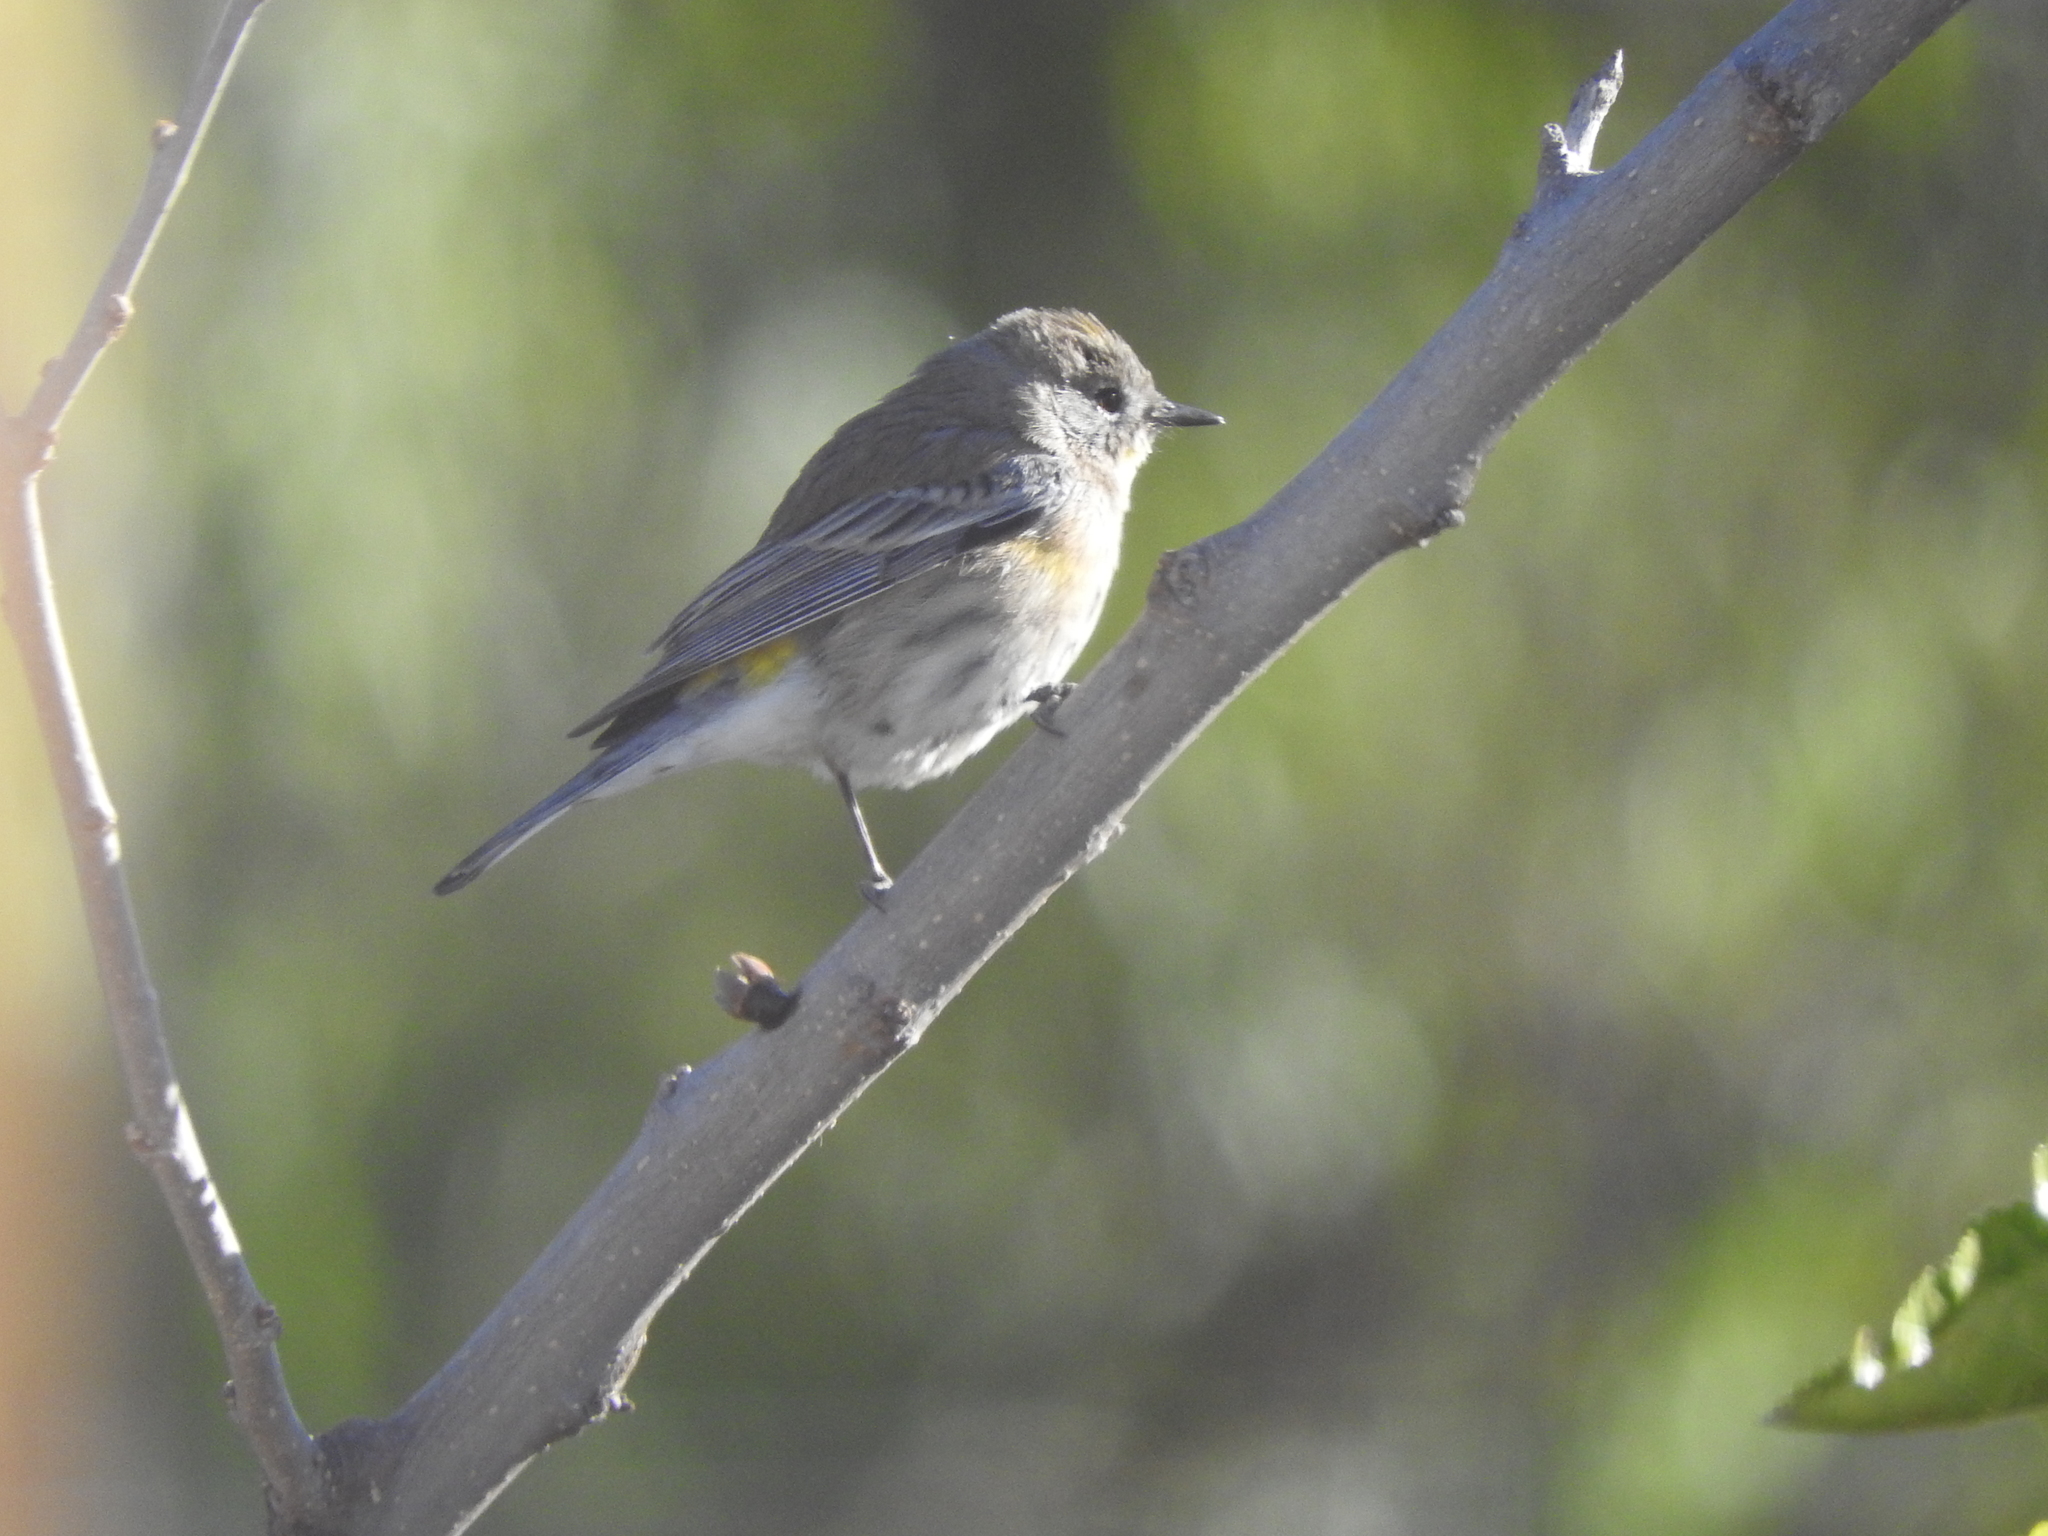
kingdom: Animalia
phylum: Chordata
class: Aves
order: Passeriformes
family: Parulidae
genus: Setophaga
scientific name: Setophaga coronata
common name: Myrtle warbler
